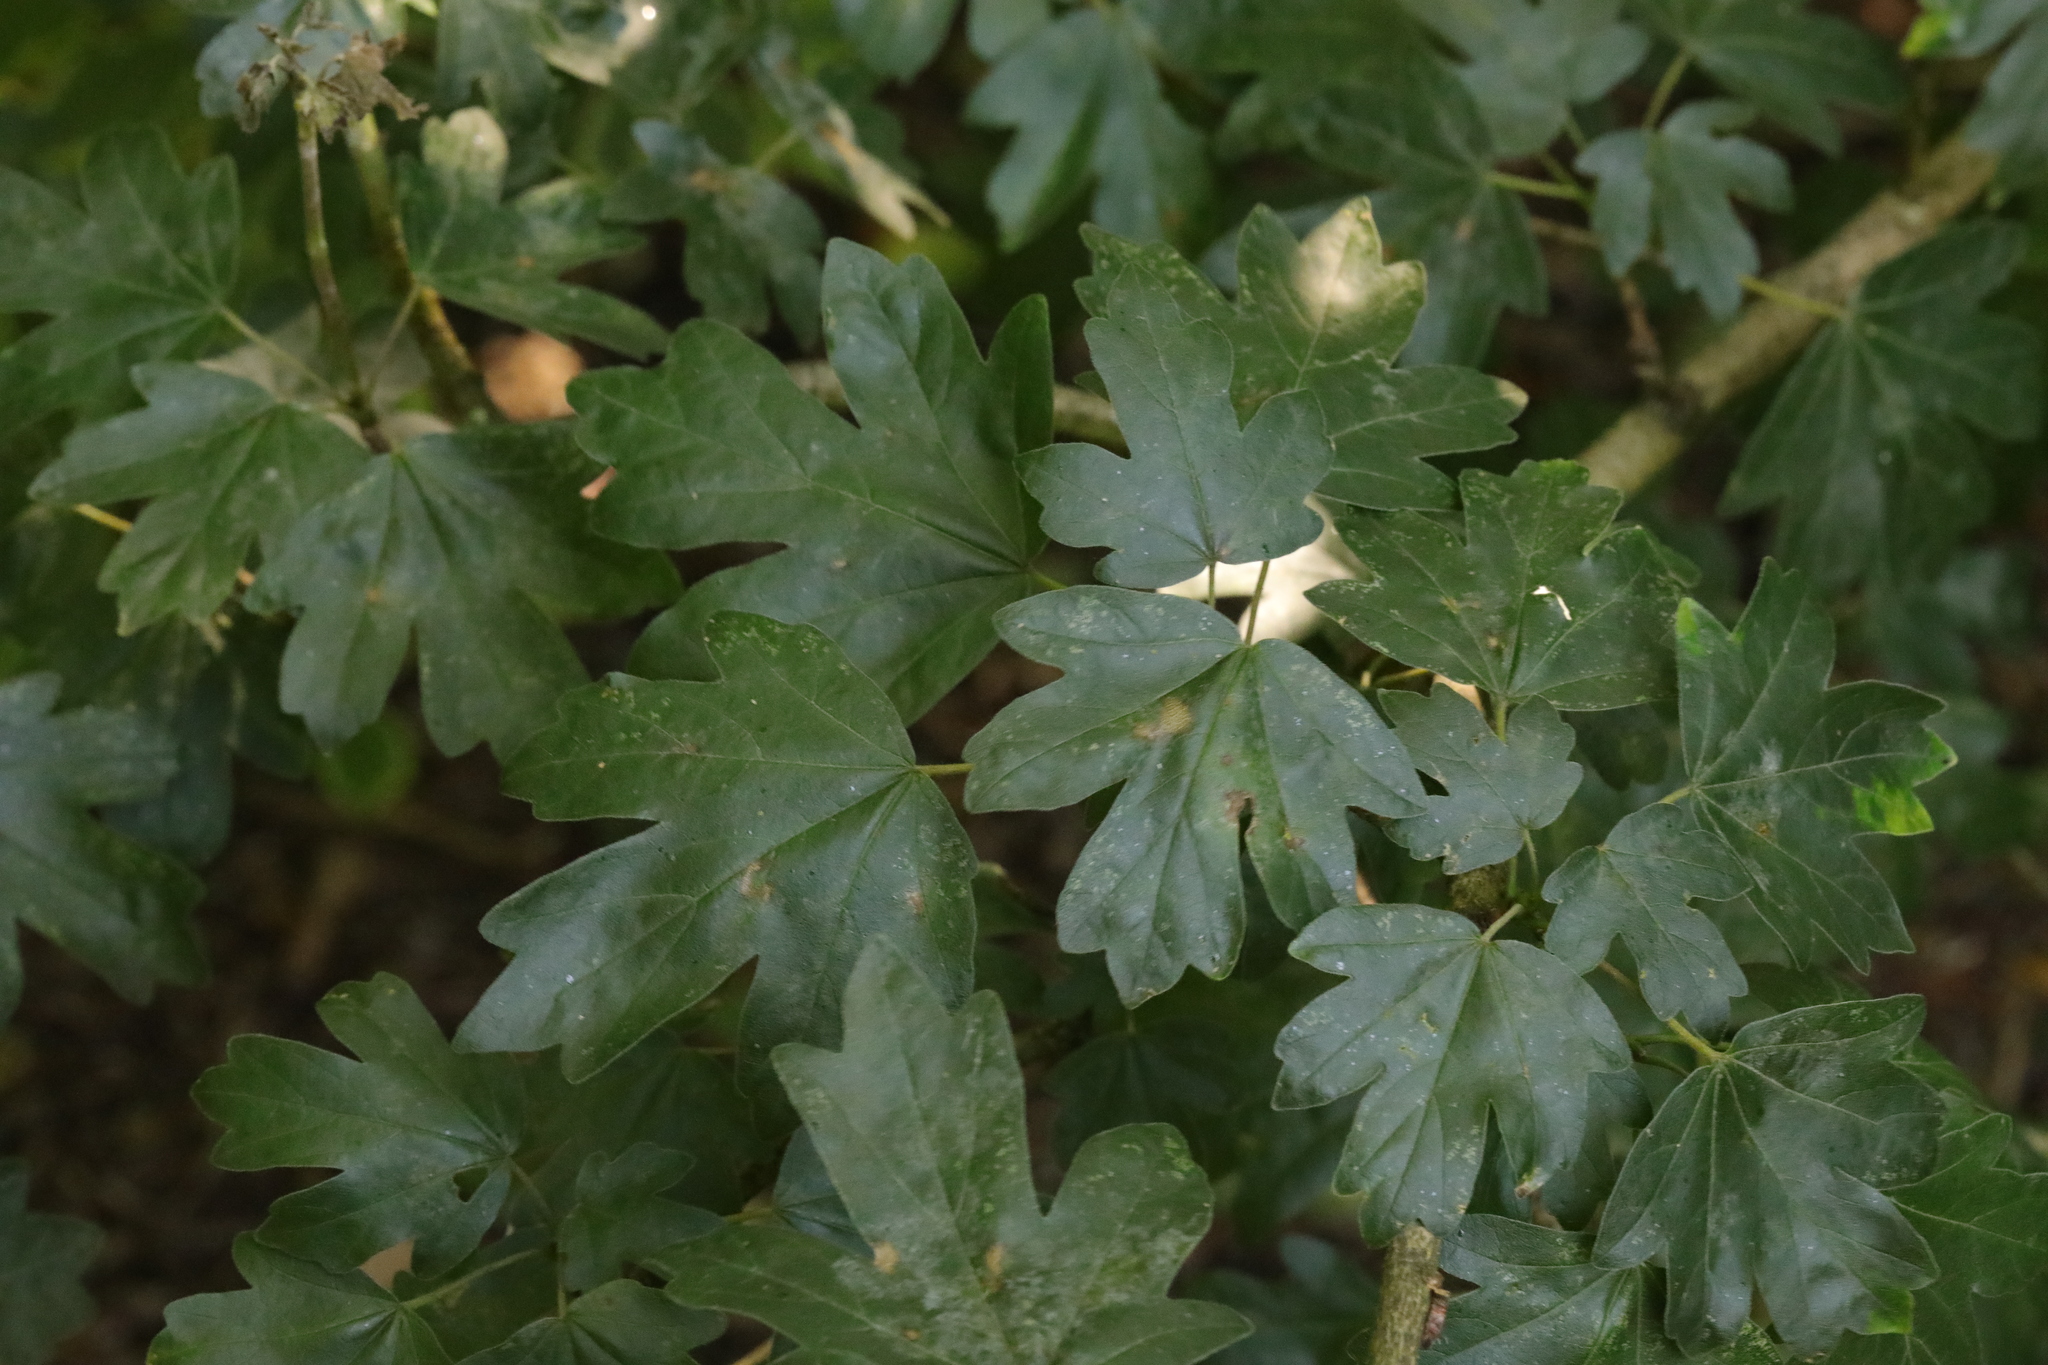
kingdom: Plantae
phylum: Tracheophyta
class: Magnoliopsida
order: Sapindales
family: Sapindaceae
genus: Acer
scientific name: Acer campestre
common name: Field maple
